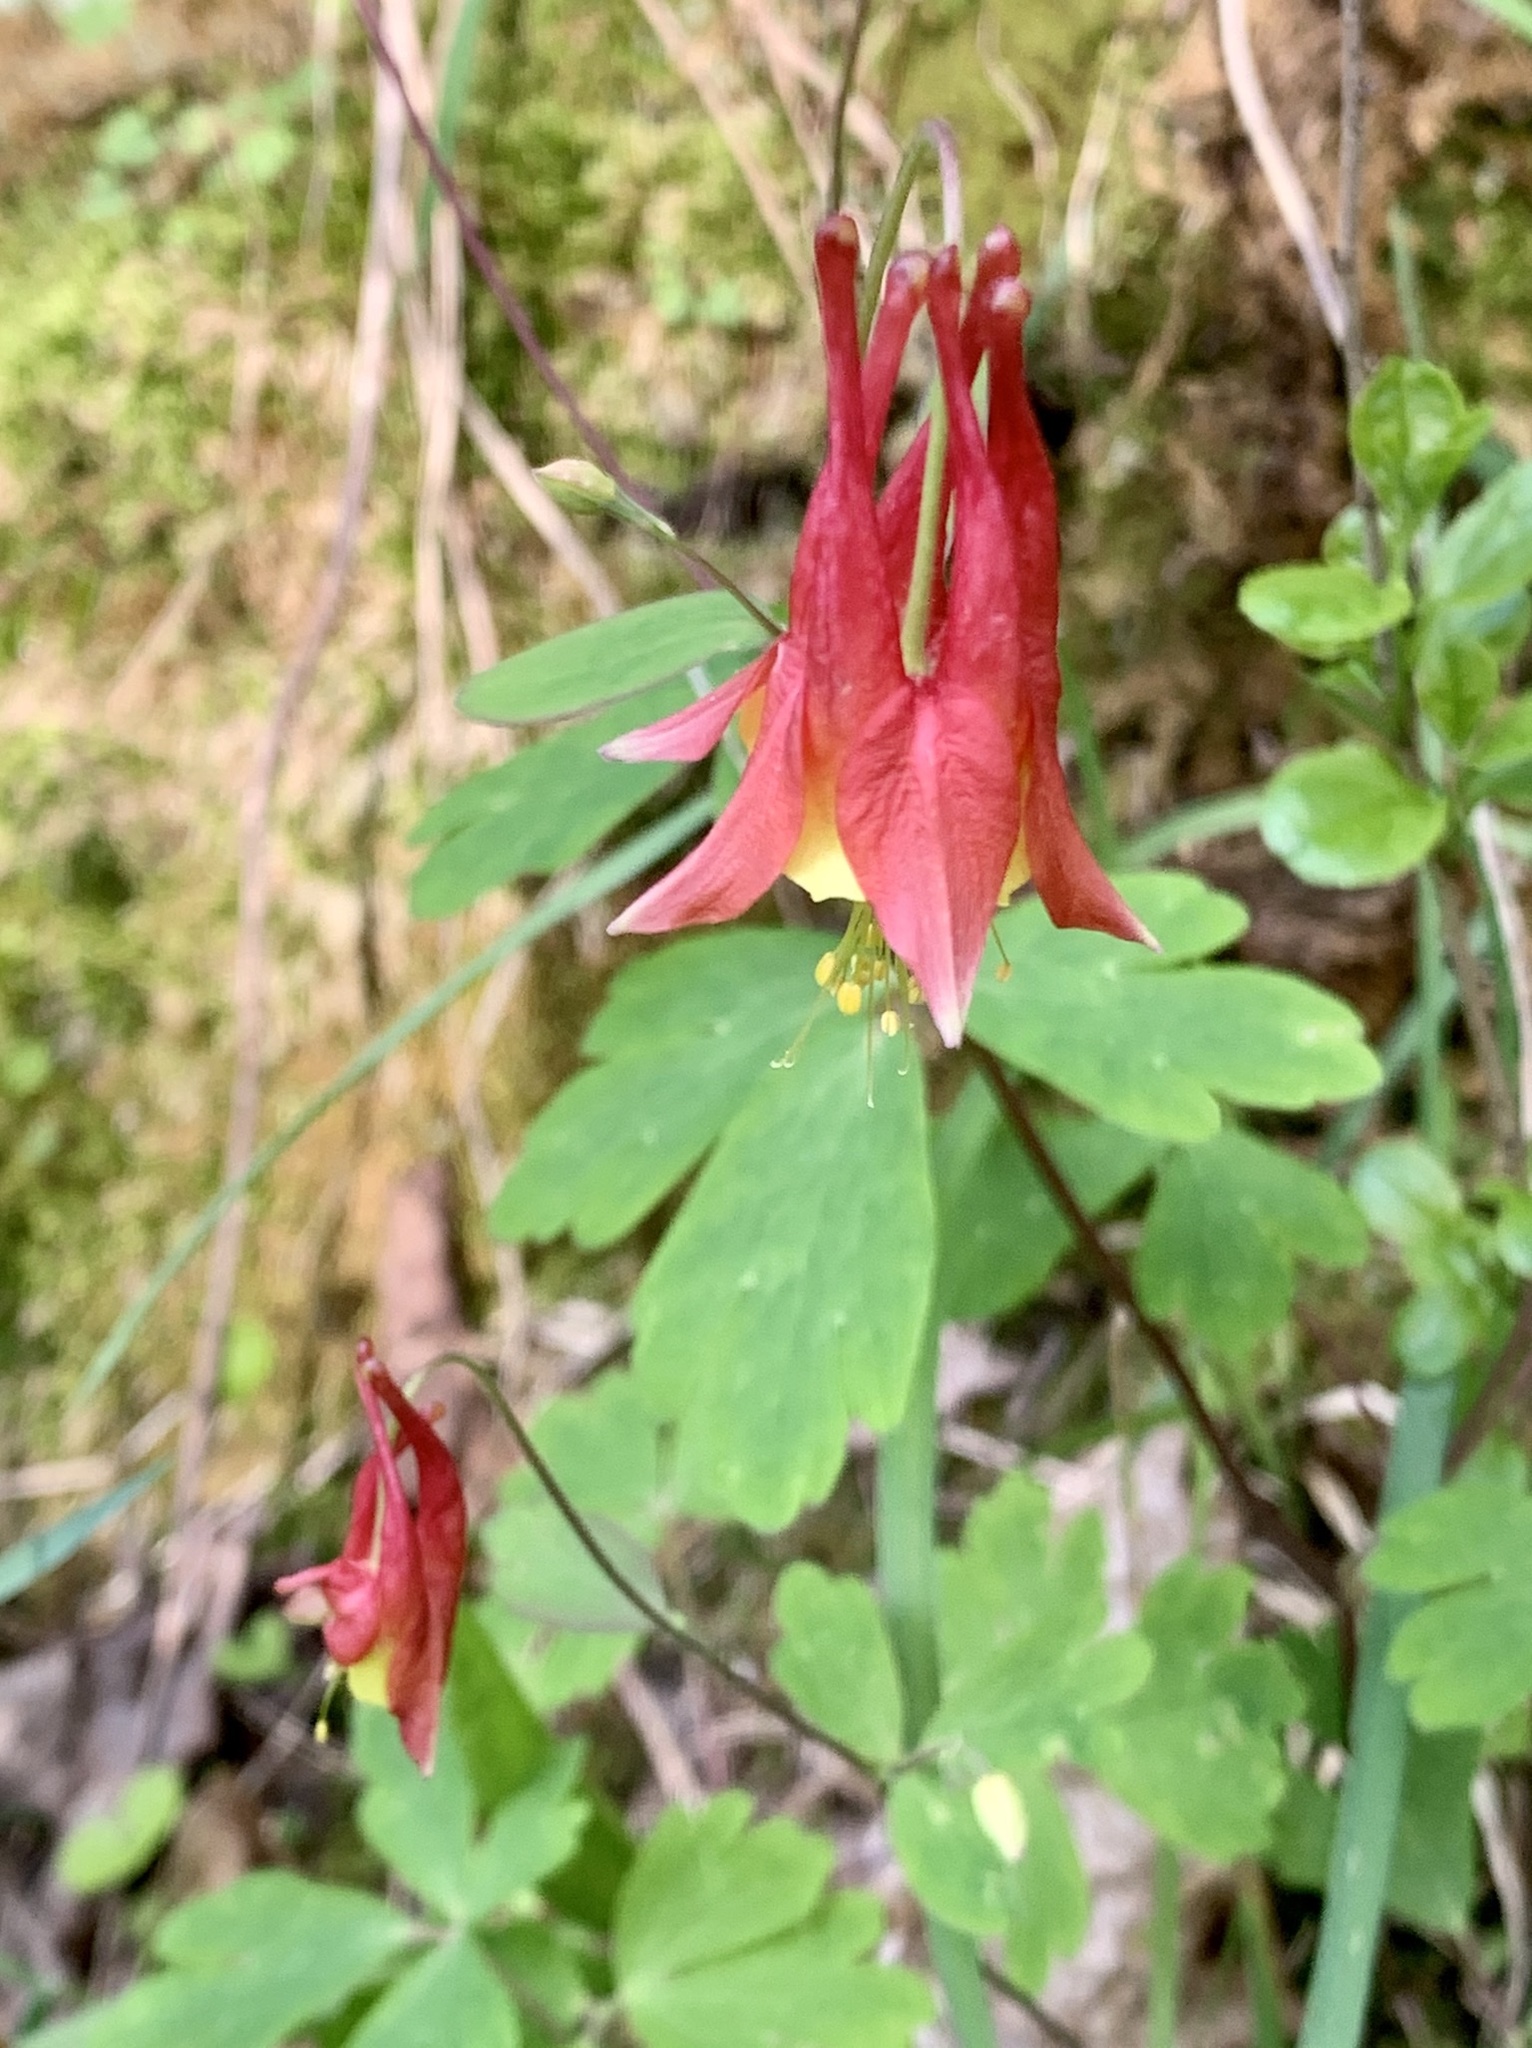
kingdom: Plantae
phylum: Tracheophyta
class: Magnoliopsida
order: Ranunculales
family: Ranunculaceae
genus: Aquilegia
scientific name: Aquilegia canadensis
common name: American columbine
